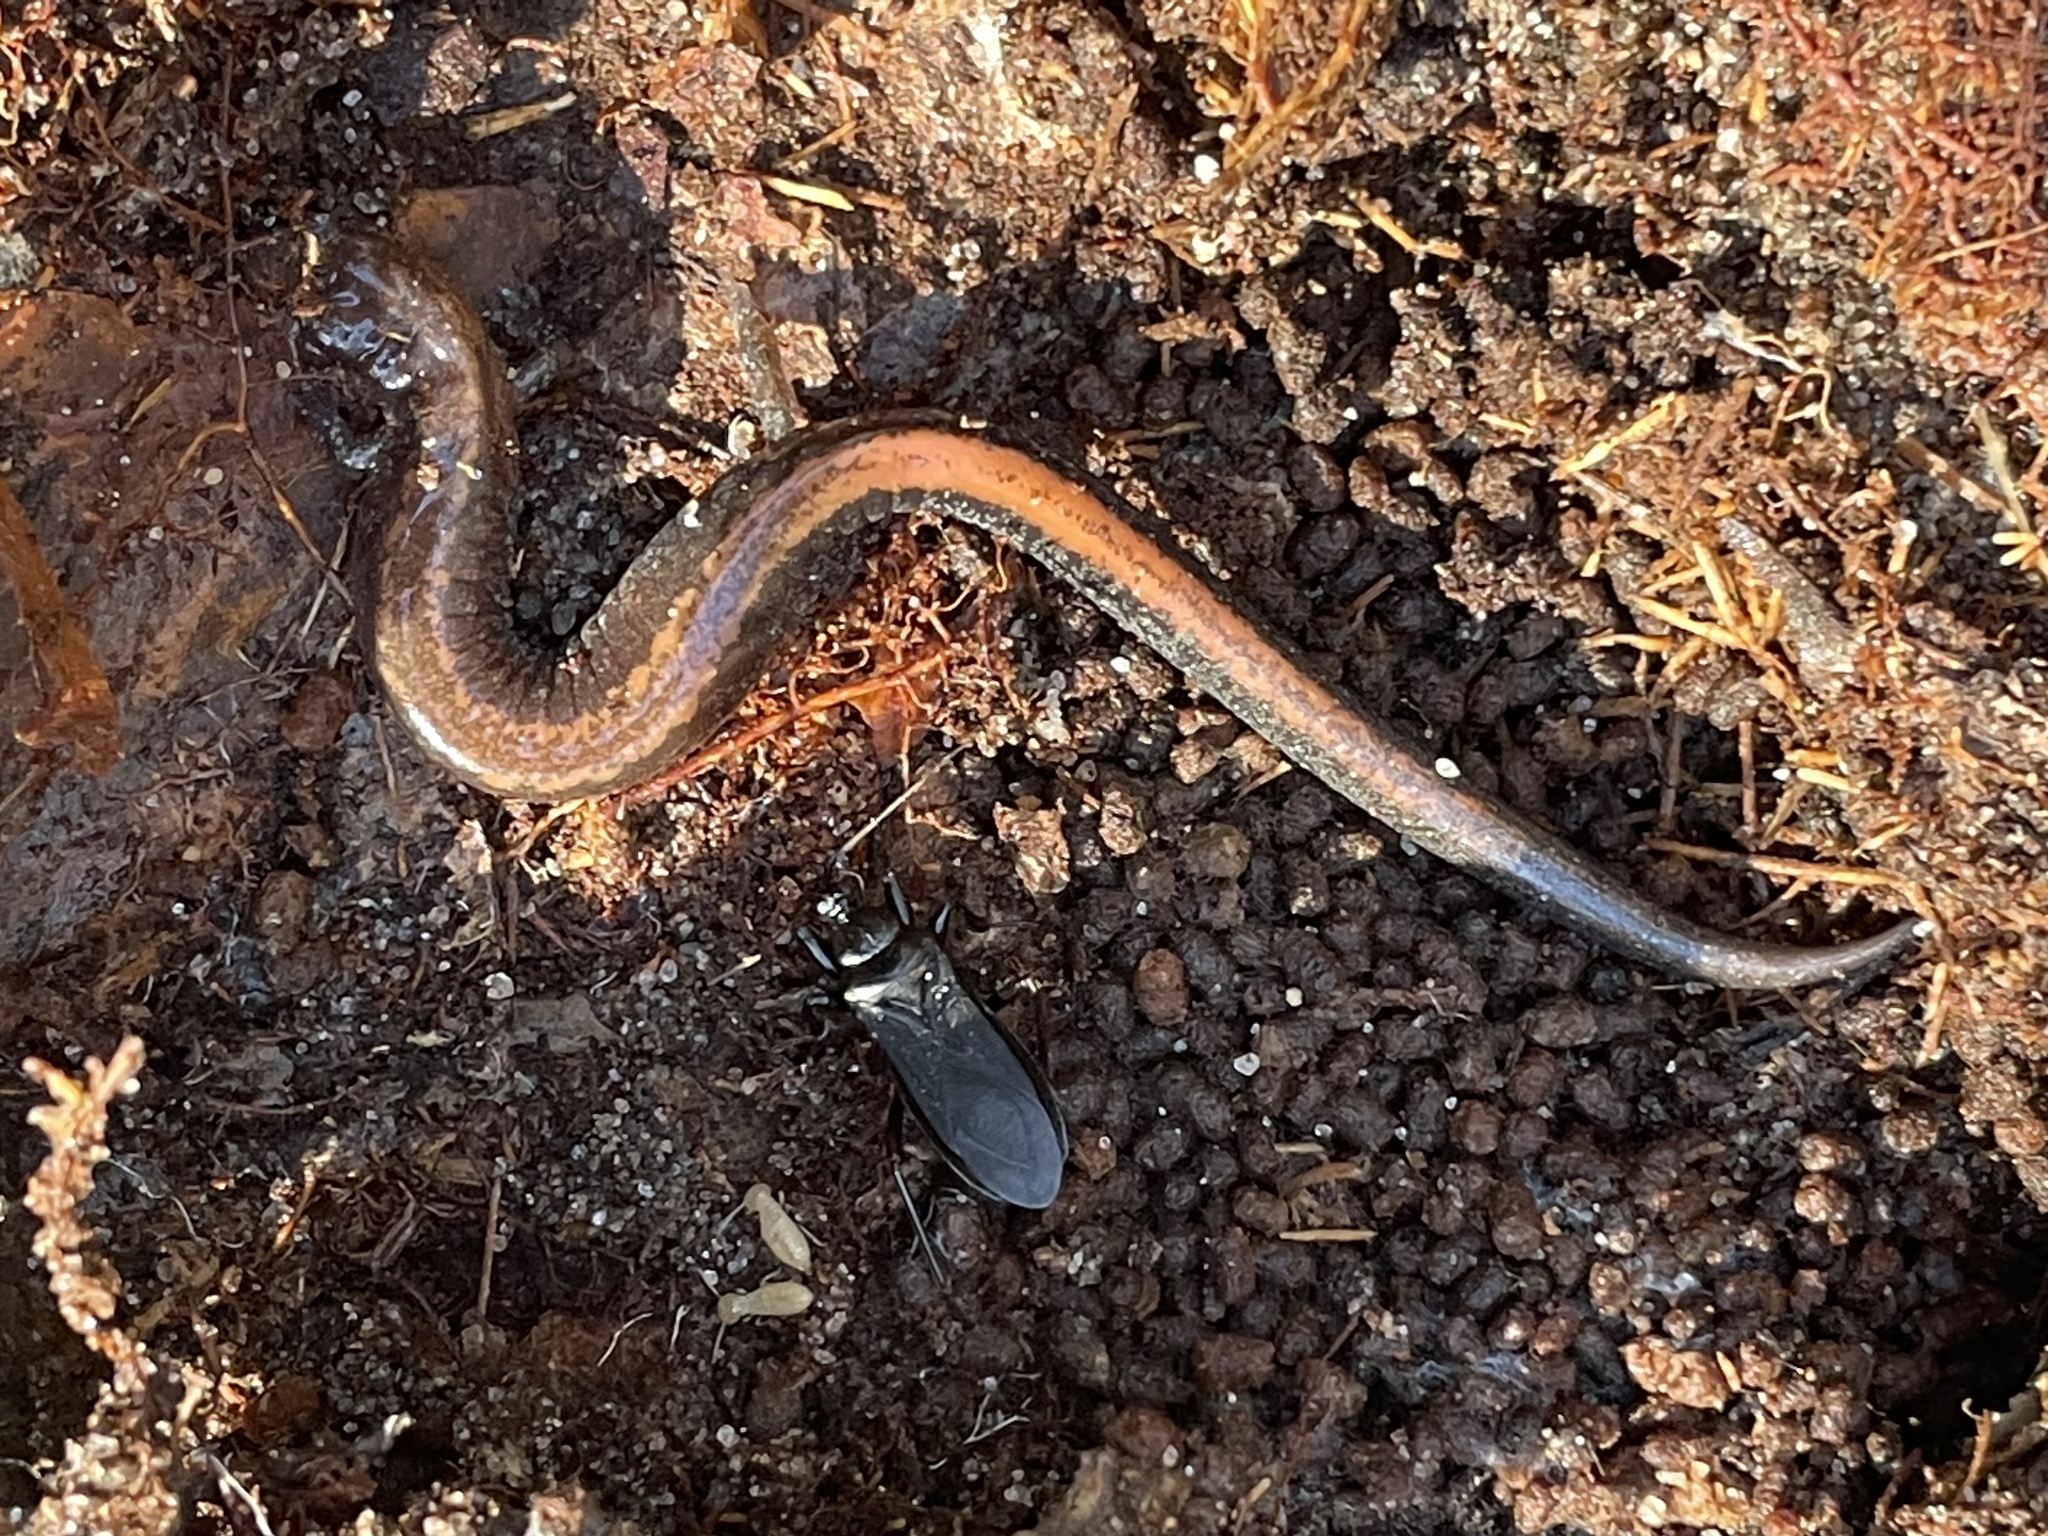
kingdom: Animalia
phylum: Chordata
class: Amphibia
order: Caudata
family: Plethodontidae
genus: Plethodon
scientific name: Plethodon cinereus
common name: Redback salamander
